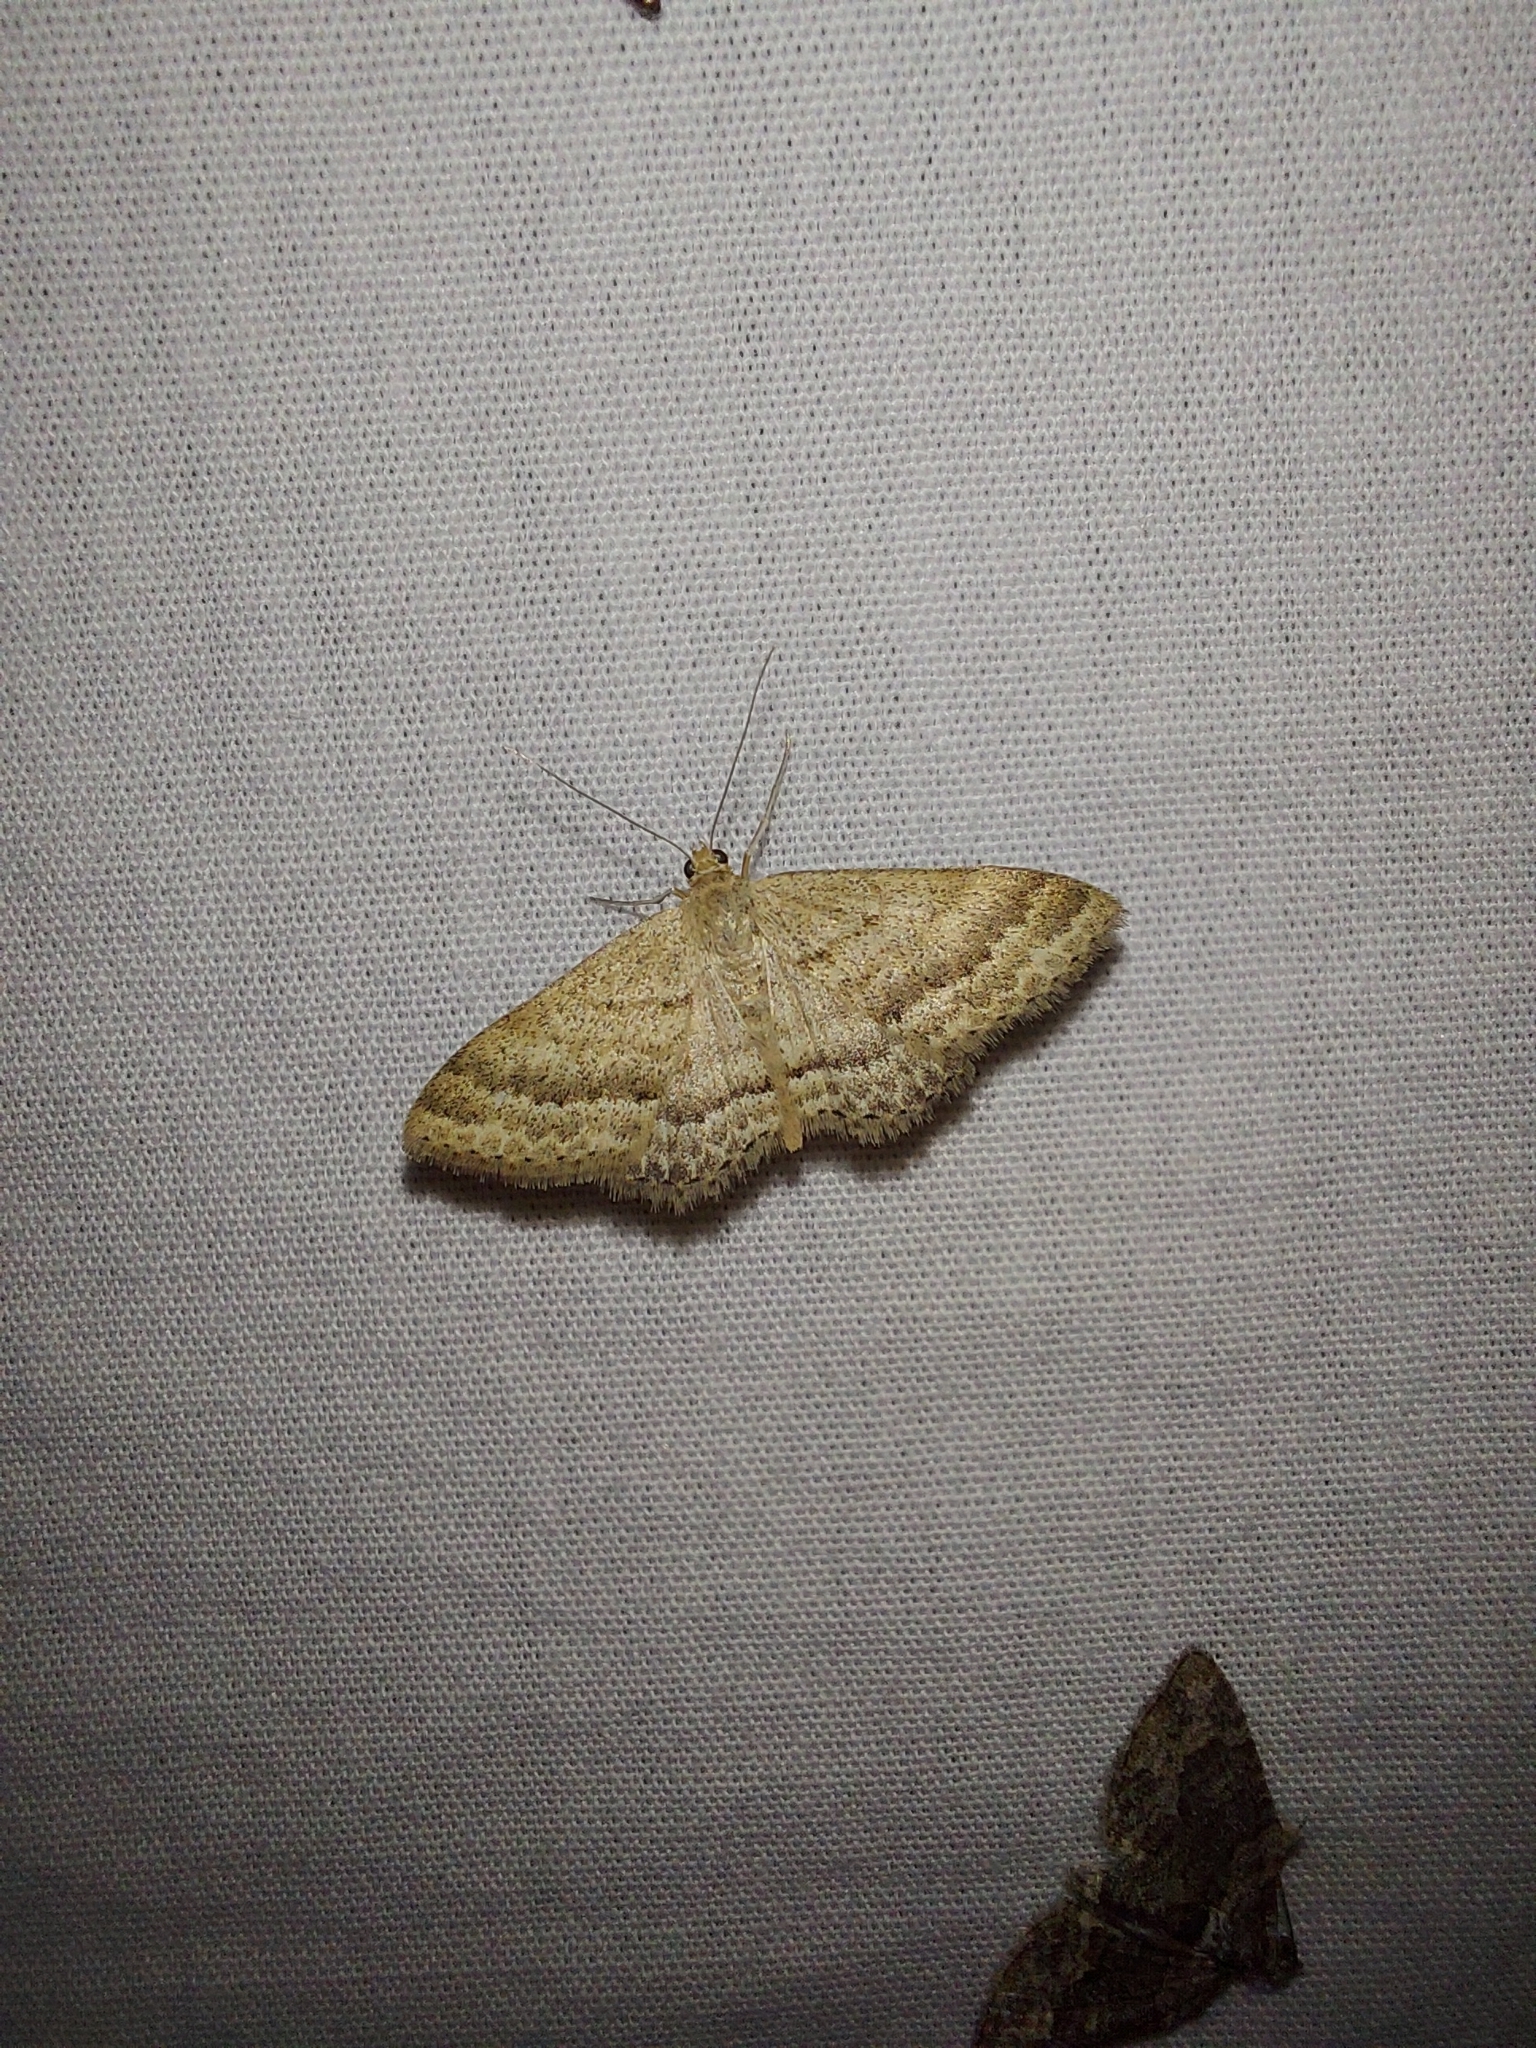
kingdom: Animalia
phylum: Arthropoda
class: Insecta
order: Lepidoptera
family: Geometridae
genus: Scopula
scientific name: Scopula lydia
